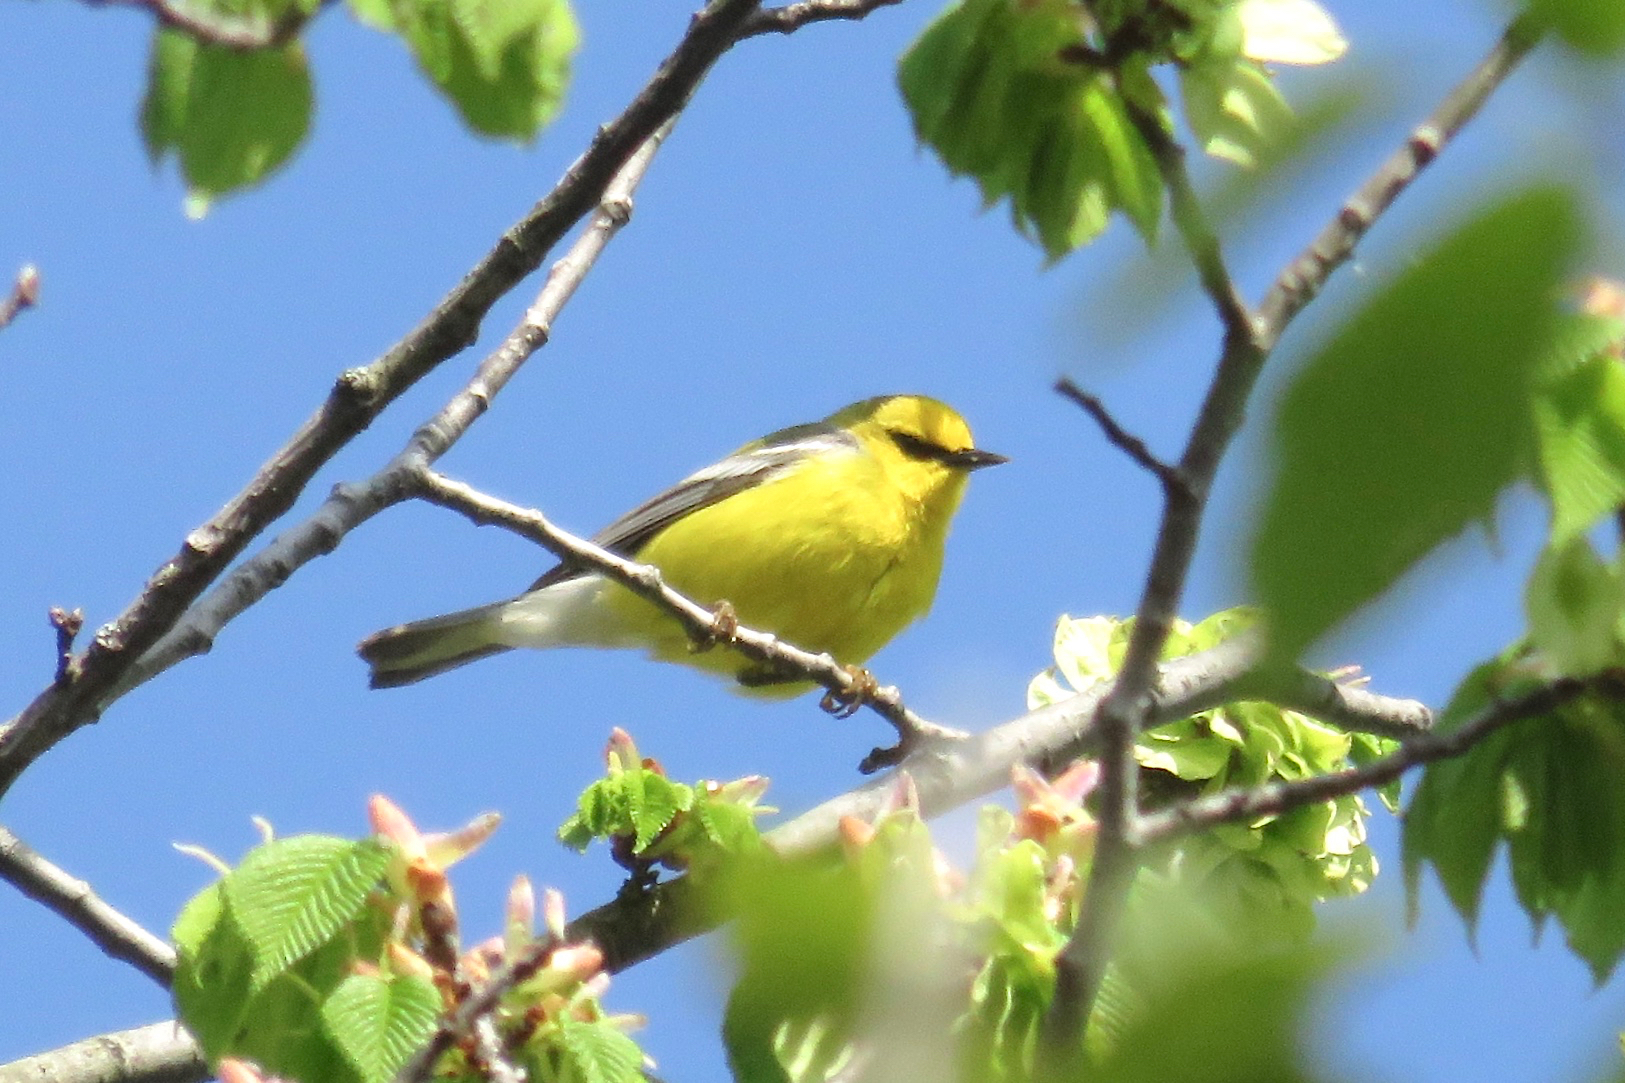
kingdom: Animalia
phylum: Chordata
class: Aves
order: Passeriformes
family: Parulidae
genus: Vermivora
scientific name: Vermivora cyanoptera
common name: Blue-winged warbler
